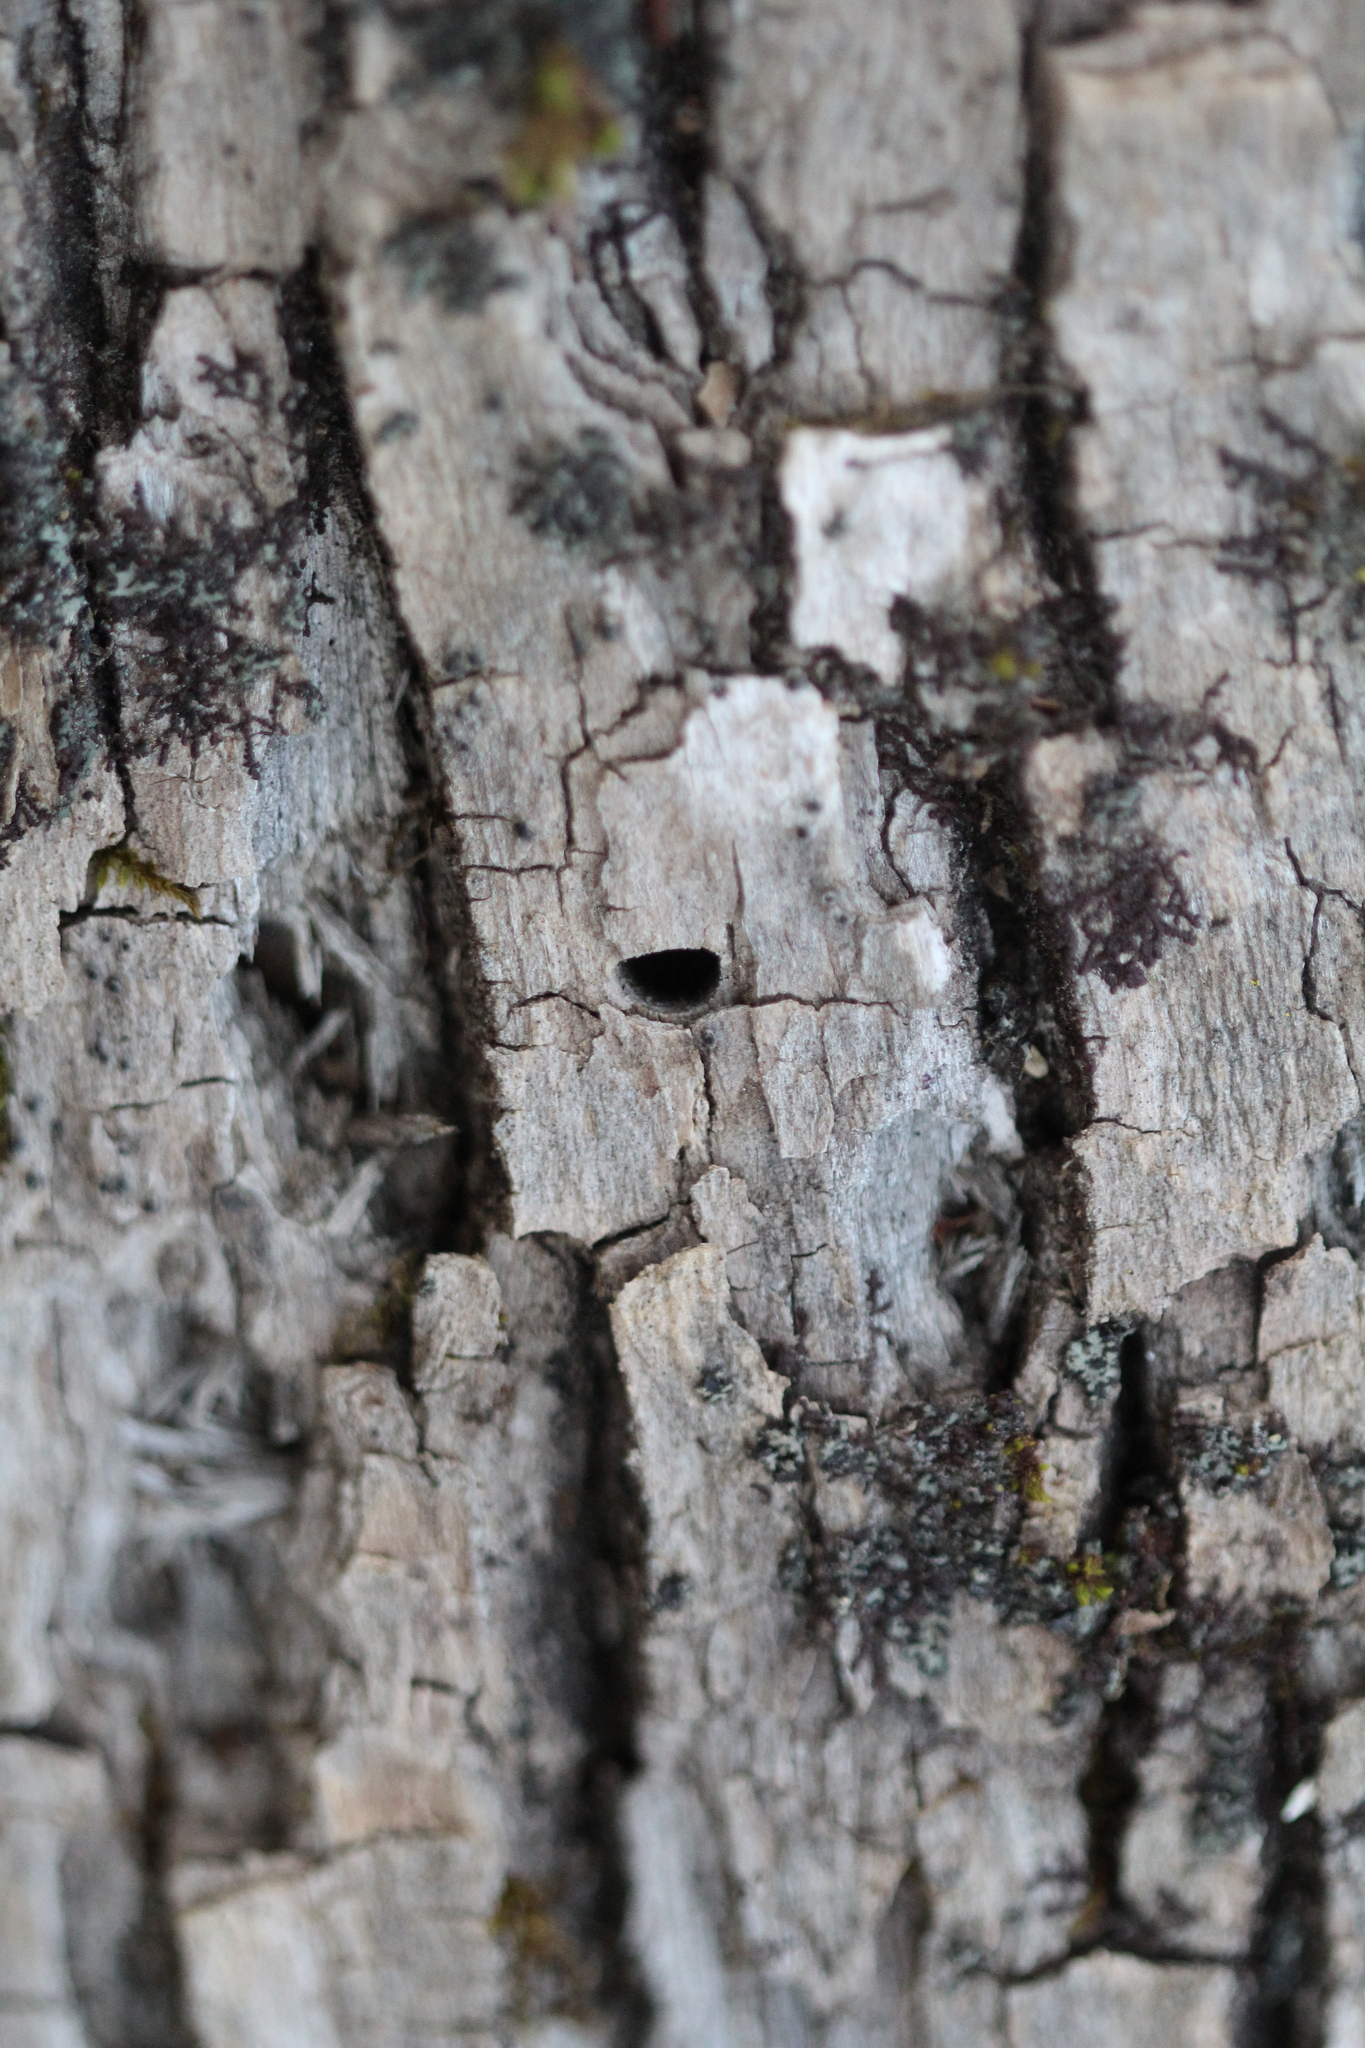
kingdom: Animalia
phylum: Arthropoda
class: Insecta
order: Coleoptera
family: Buprestidae
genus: Agrilus
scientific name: Agrilus planipennis
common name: Emerald ash borer
